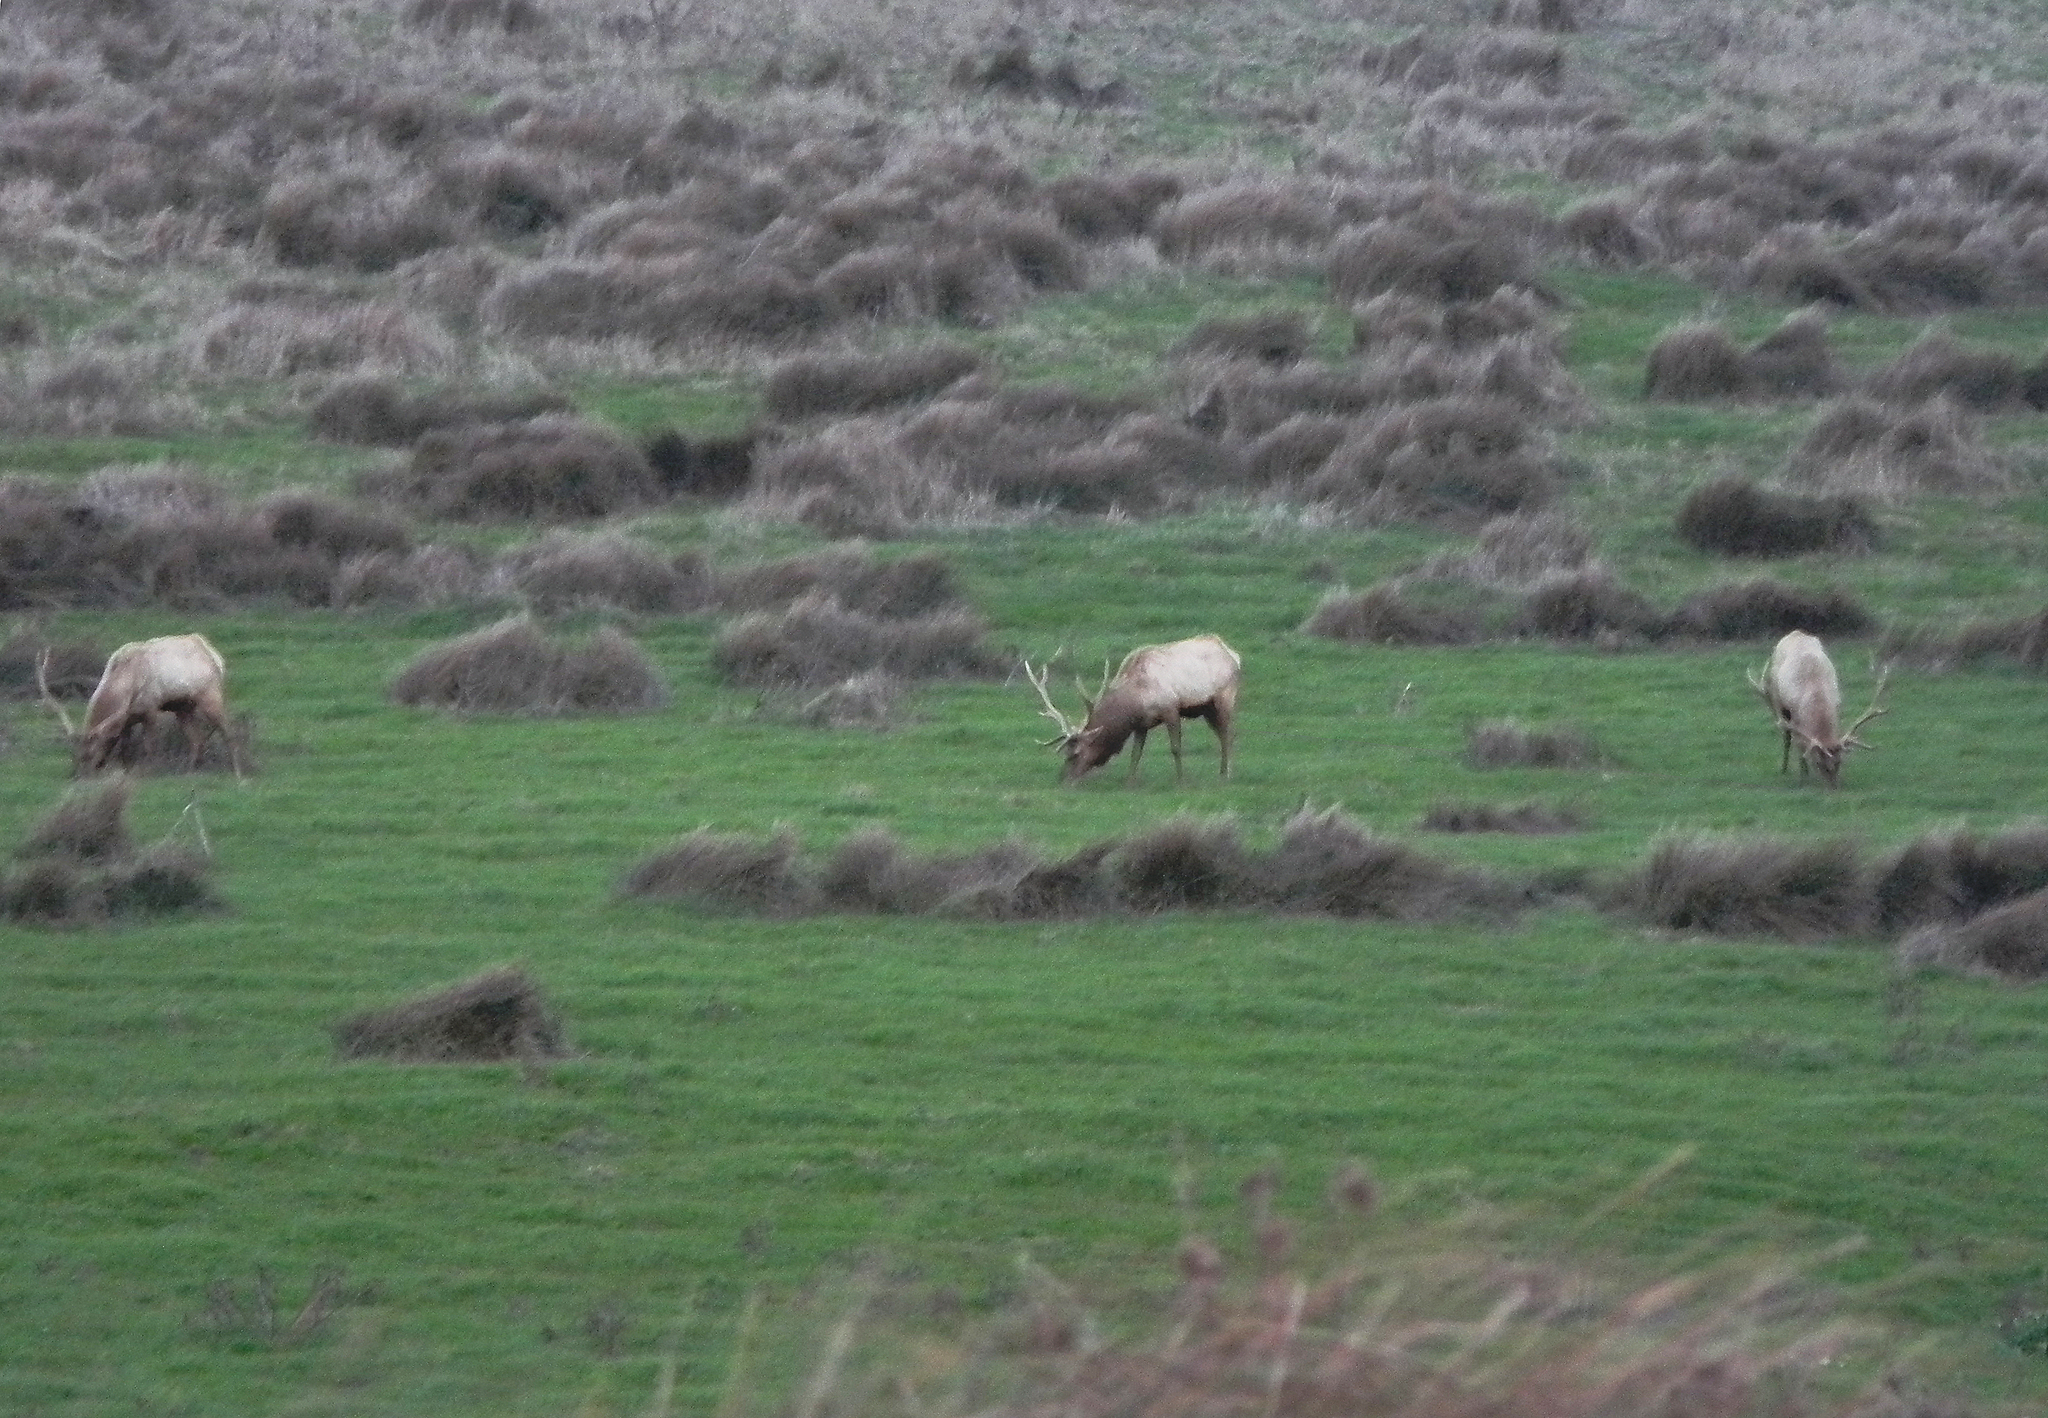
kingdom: Animalia
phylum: Chordata
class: Mammalia
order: Artiodactyla
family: Cervidae
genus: Cervus
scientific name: Cervus elaphus
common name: Red deer
